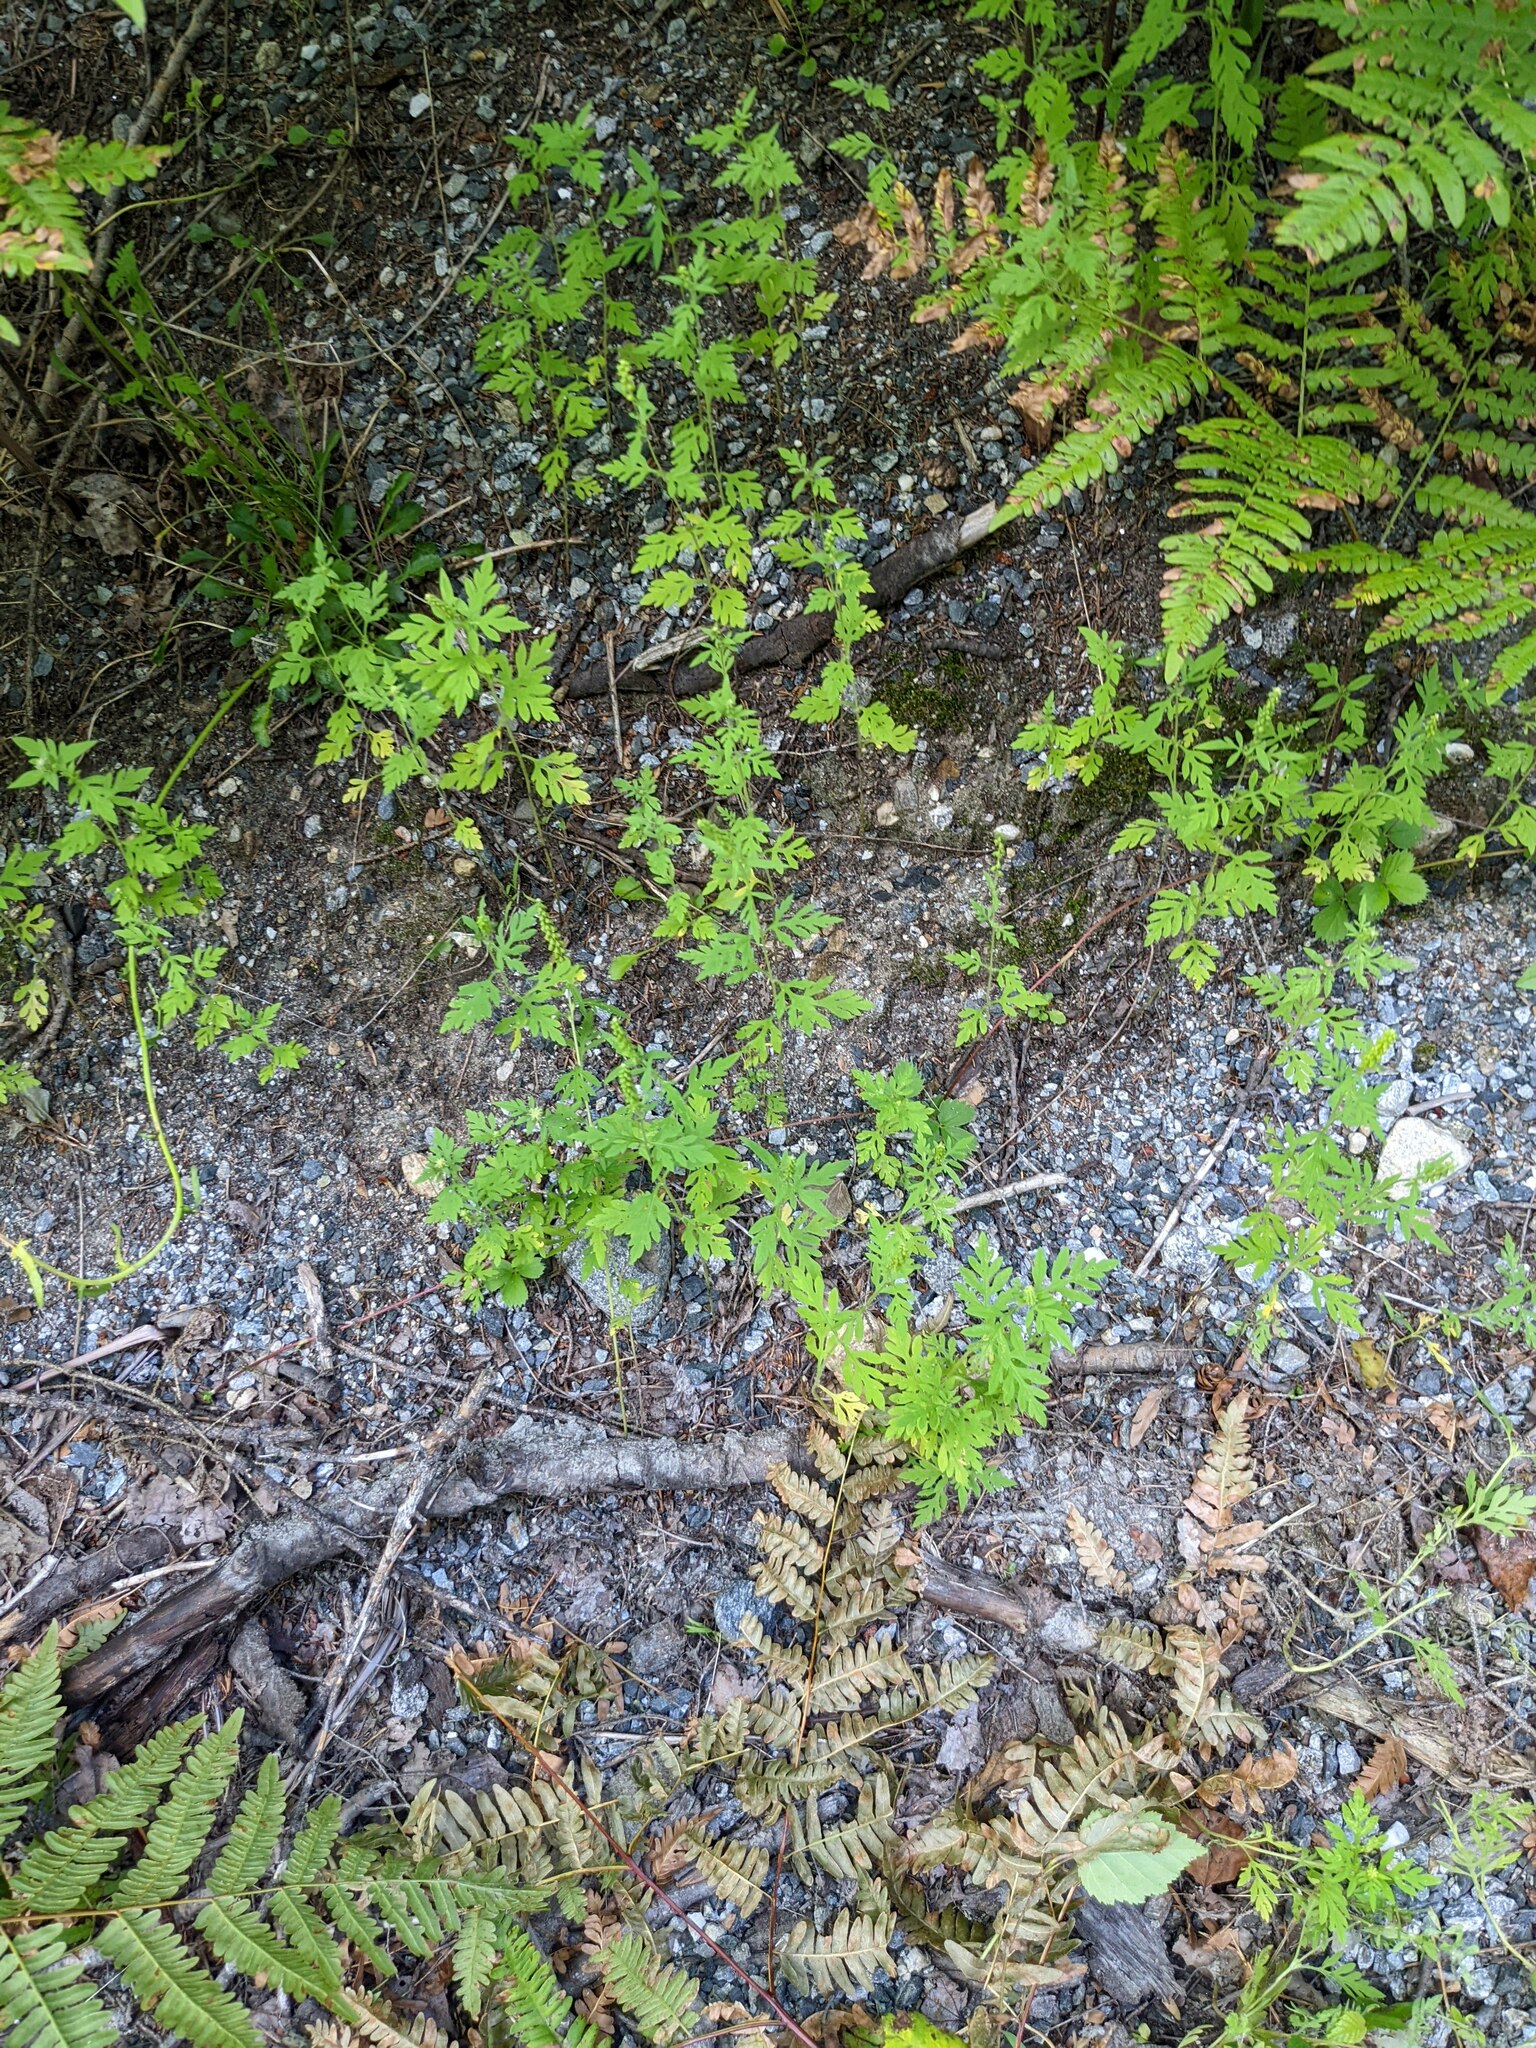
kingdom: Plantae
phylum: Tracheophyta
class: Magnoliopsida
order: Asterales
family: Asteraceae
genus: Ambrosia
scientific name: Ambrosia artemisiifolia
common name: Annual ragweed
